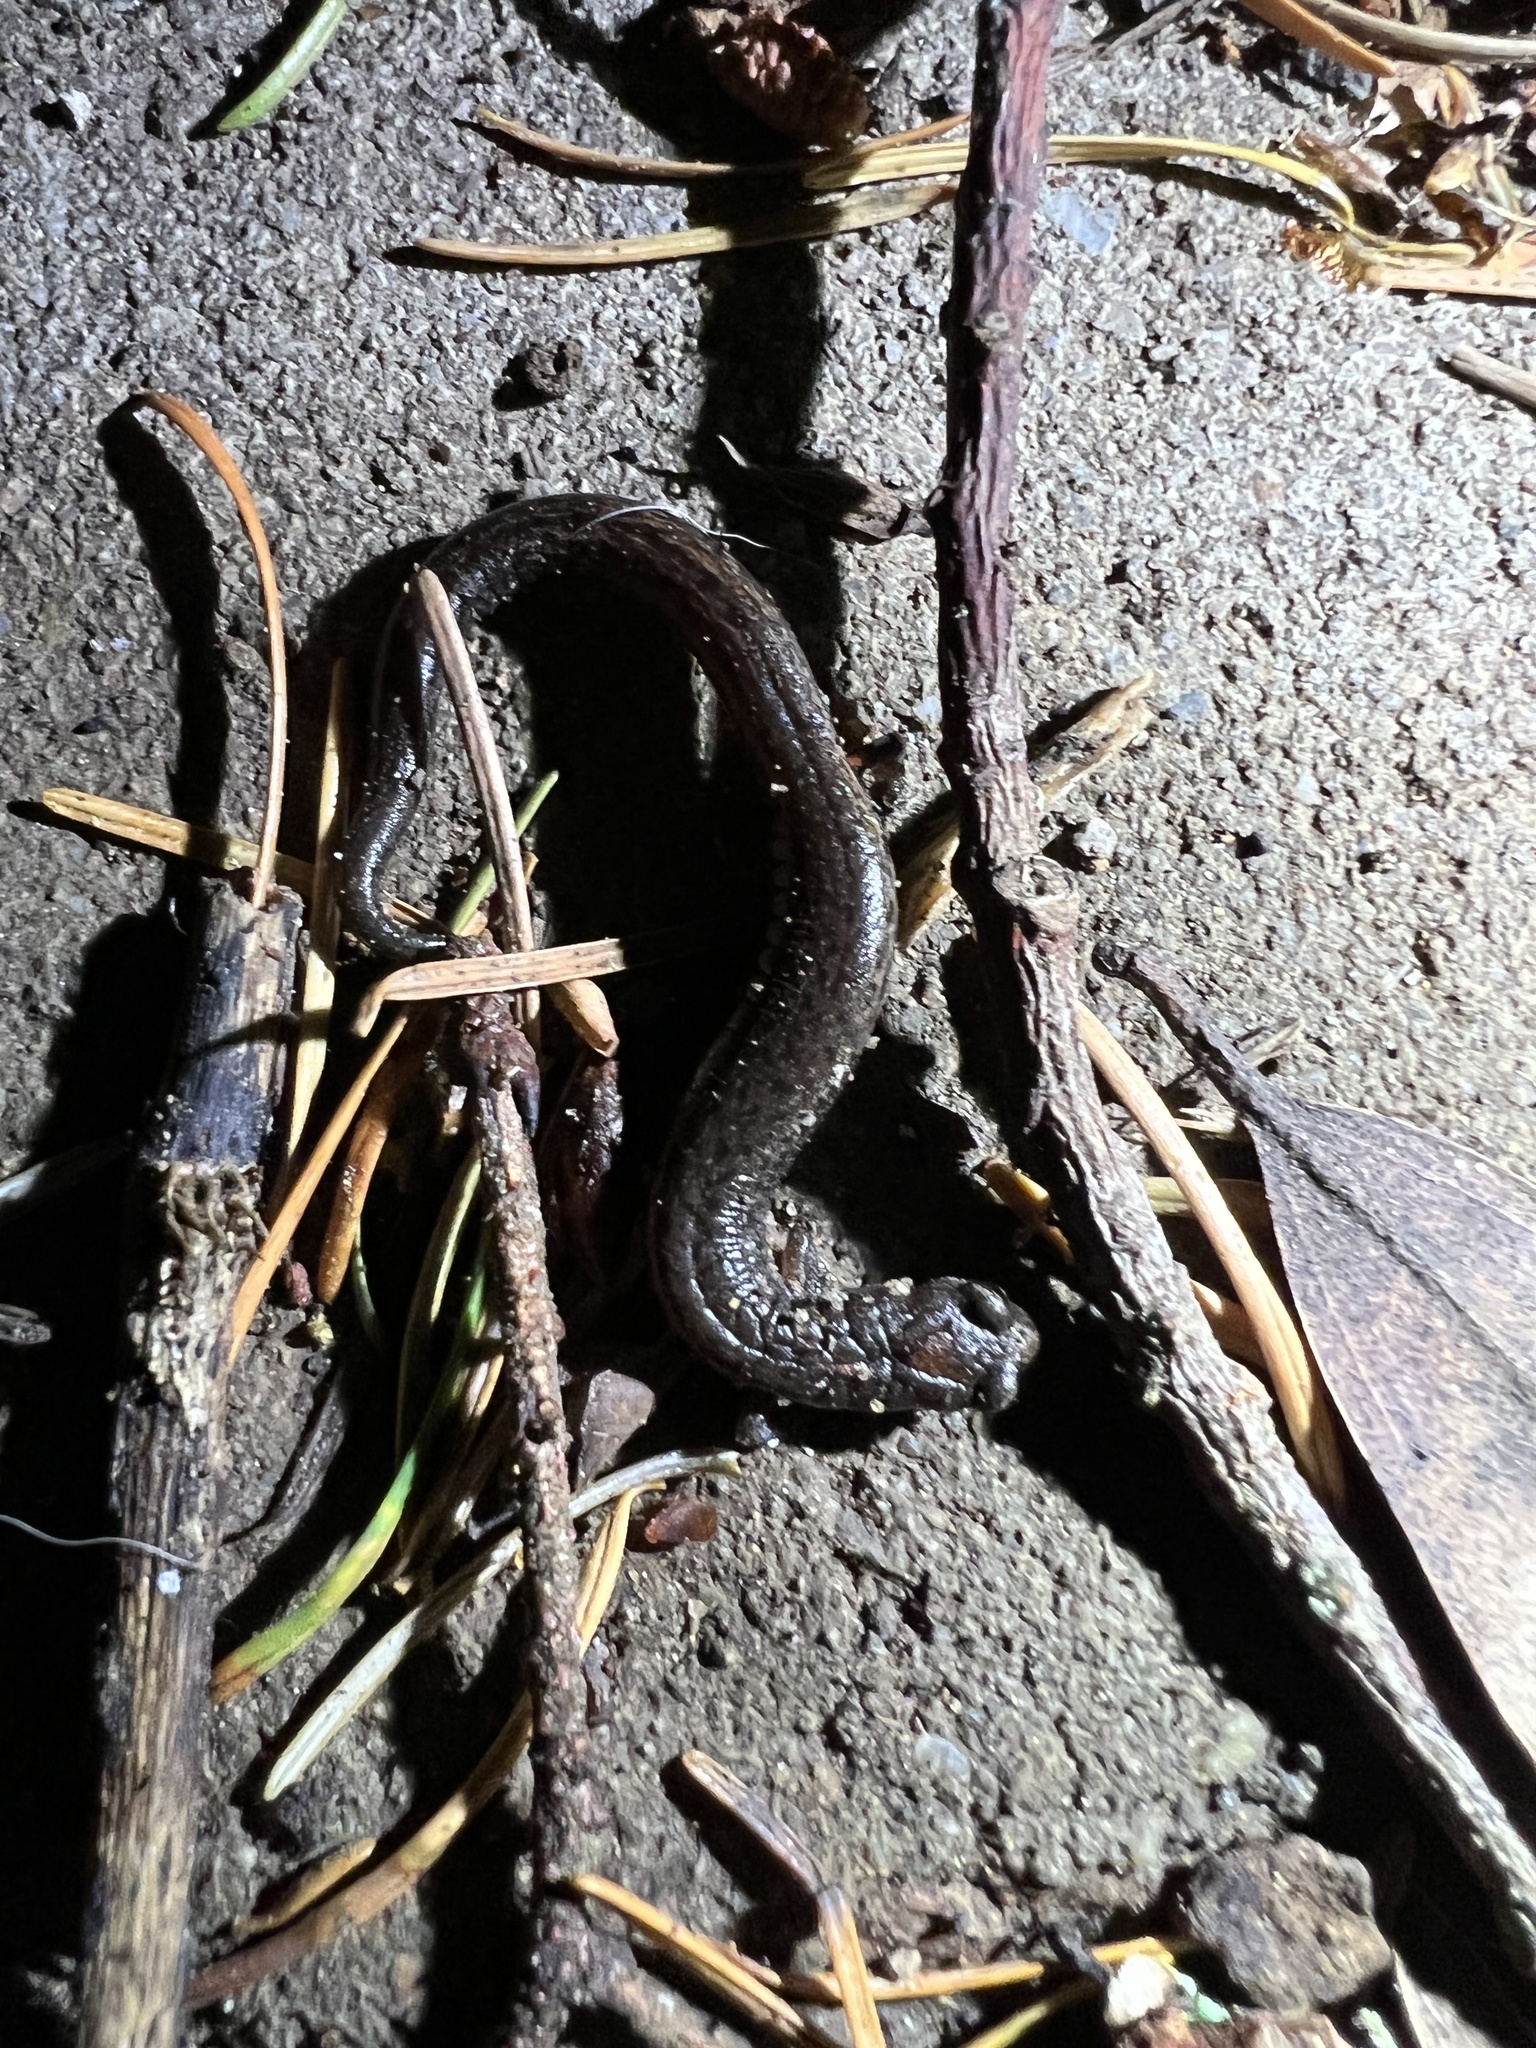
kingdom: Animalia
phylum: Chordata
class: Amphibia
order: Caudata
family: Plethodontidae
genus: Batrachoseps
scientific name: Batrachoseps attenuatus
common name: California slender salamander
